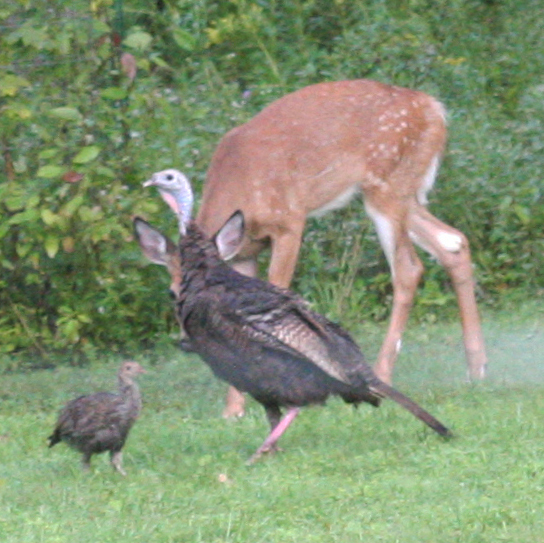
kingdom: Animalia
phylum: Chordata
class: Aves
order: Galliformes
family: Phasianidae
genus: Meleagris
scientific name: Meleagris gallopavo
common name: Wild turkey
